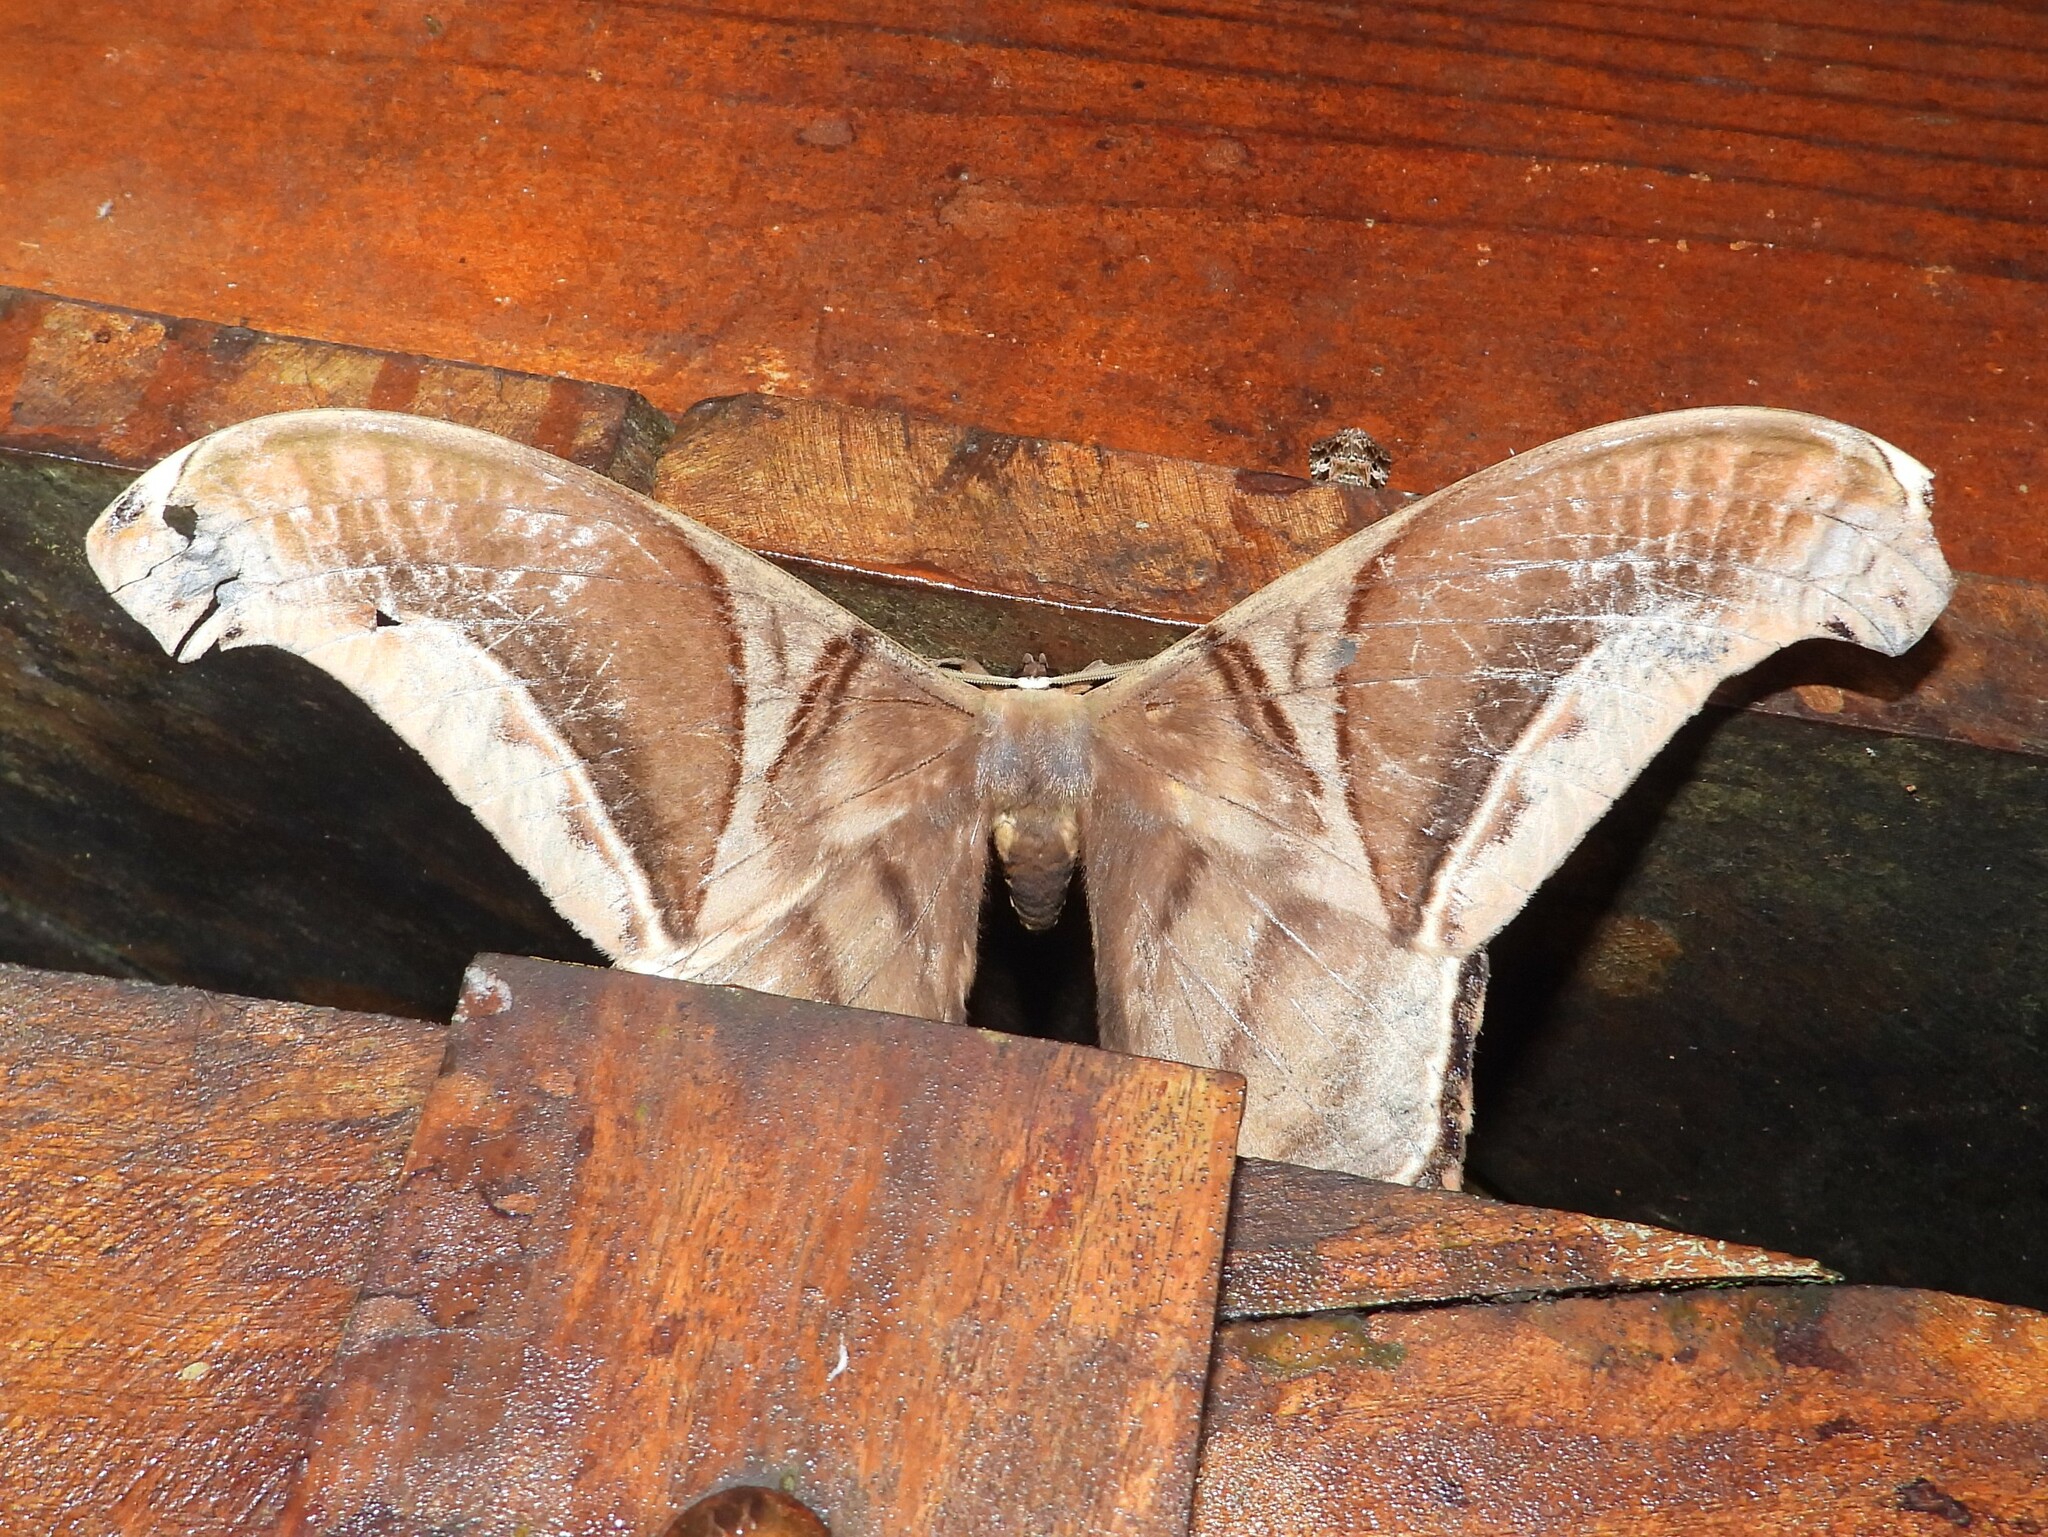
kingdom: Animalia
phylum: Arthropoda
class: Insecta
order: Lepidoptera
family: Saturniidae
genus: Rhescyntis
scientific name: Rhescyntis hippodamia
